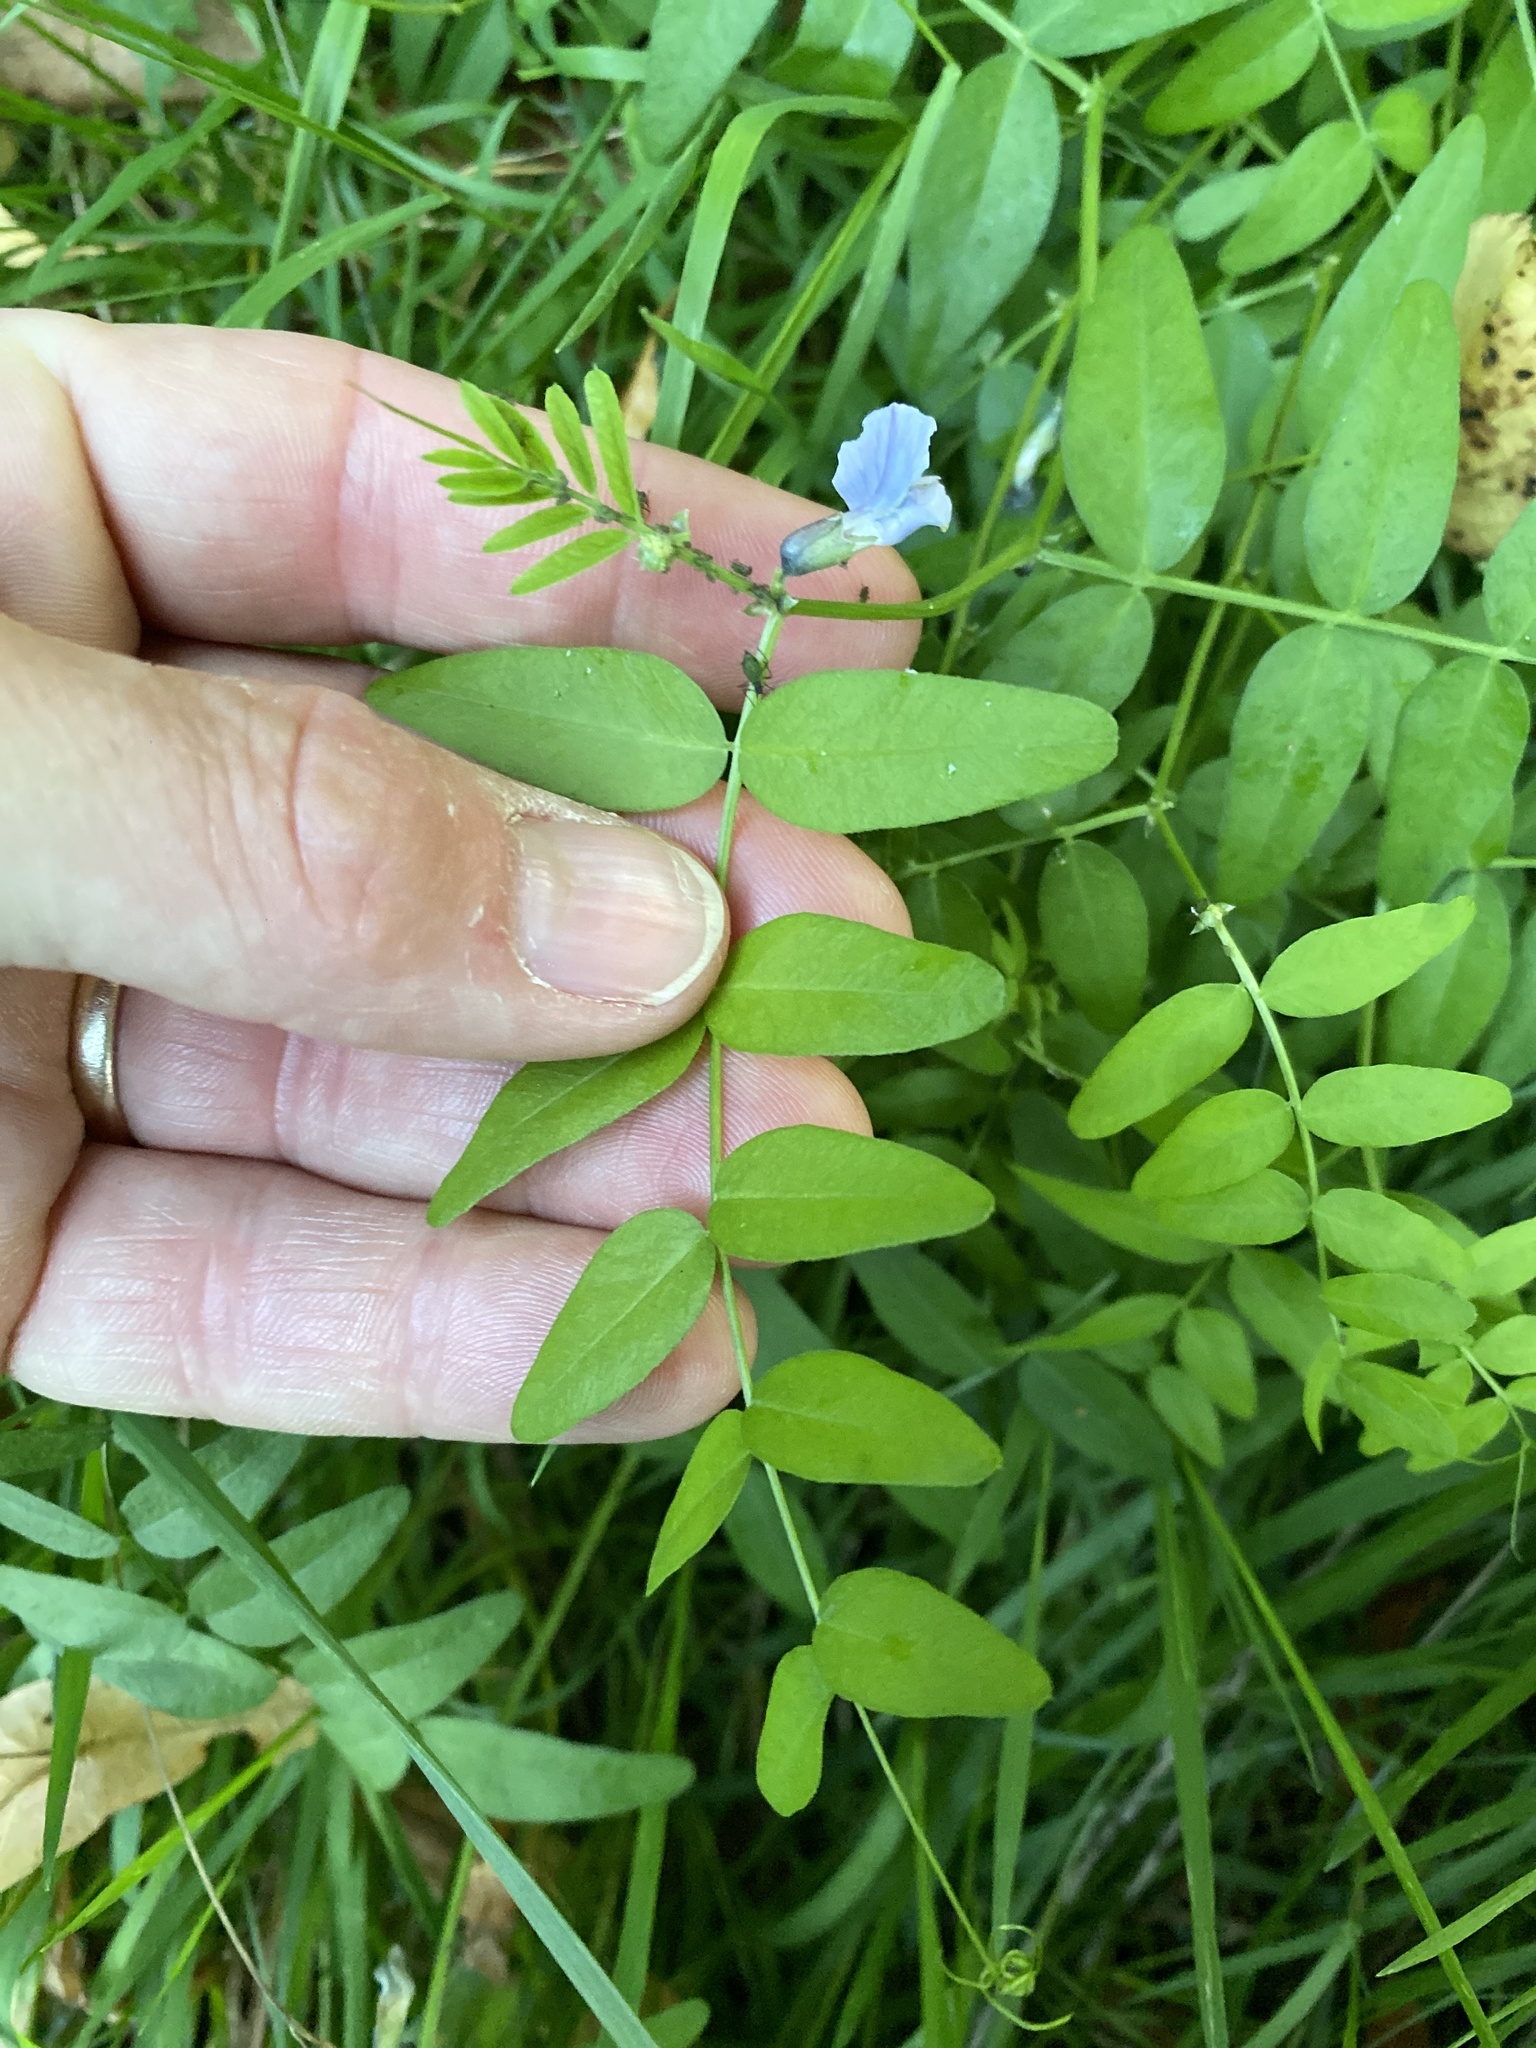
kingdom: Plantae
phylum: Tracheophyta
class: Magnoliopsida
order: Fabales
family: Fabaceae
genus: Vicia
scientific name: Vicia sepium
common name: Bush vetch
